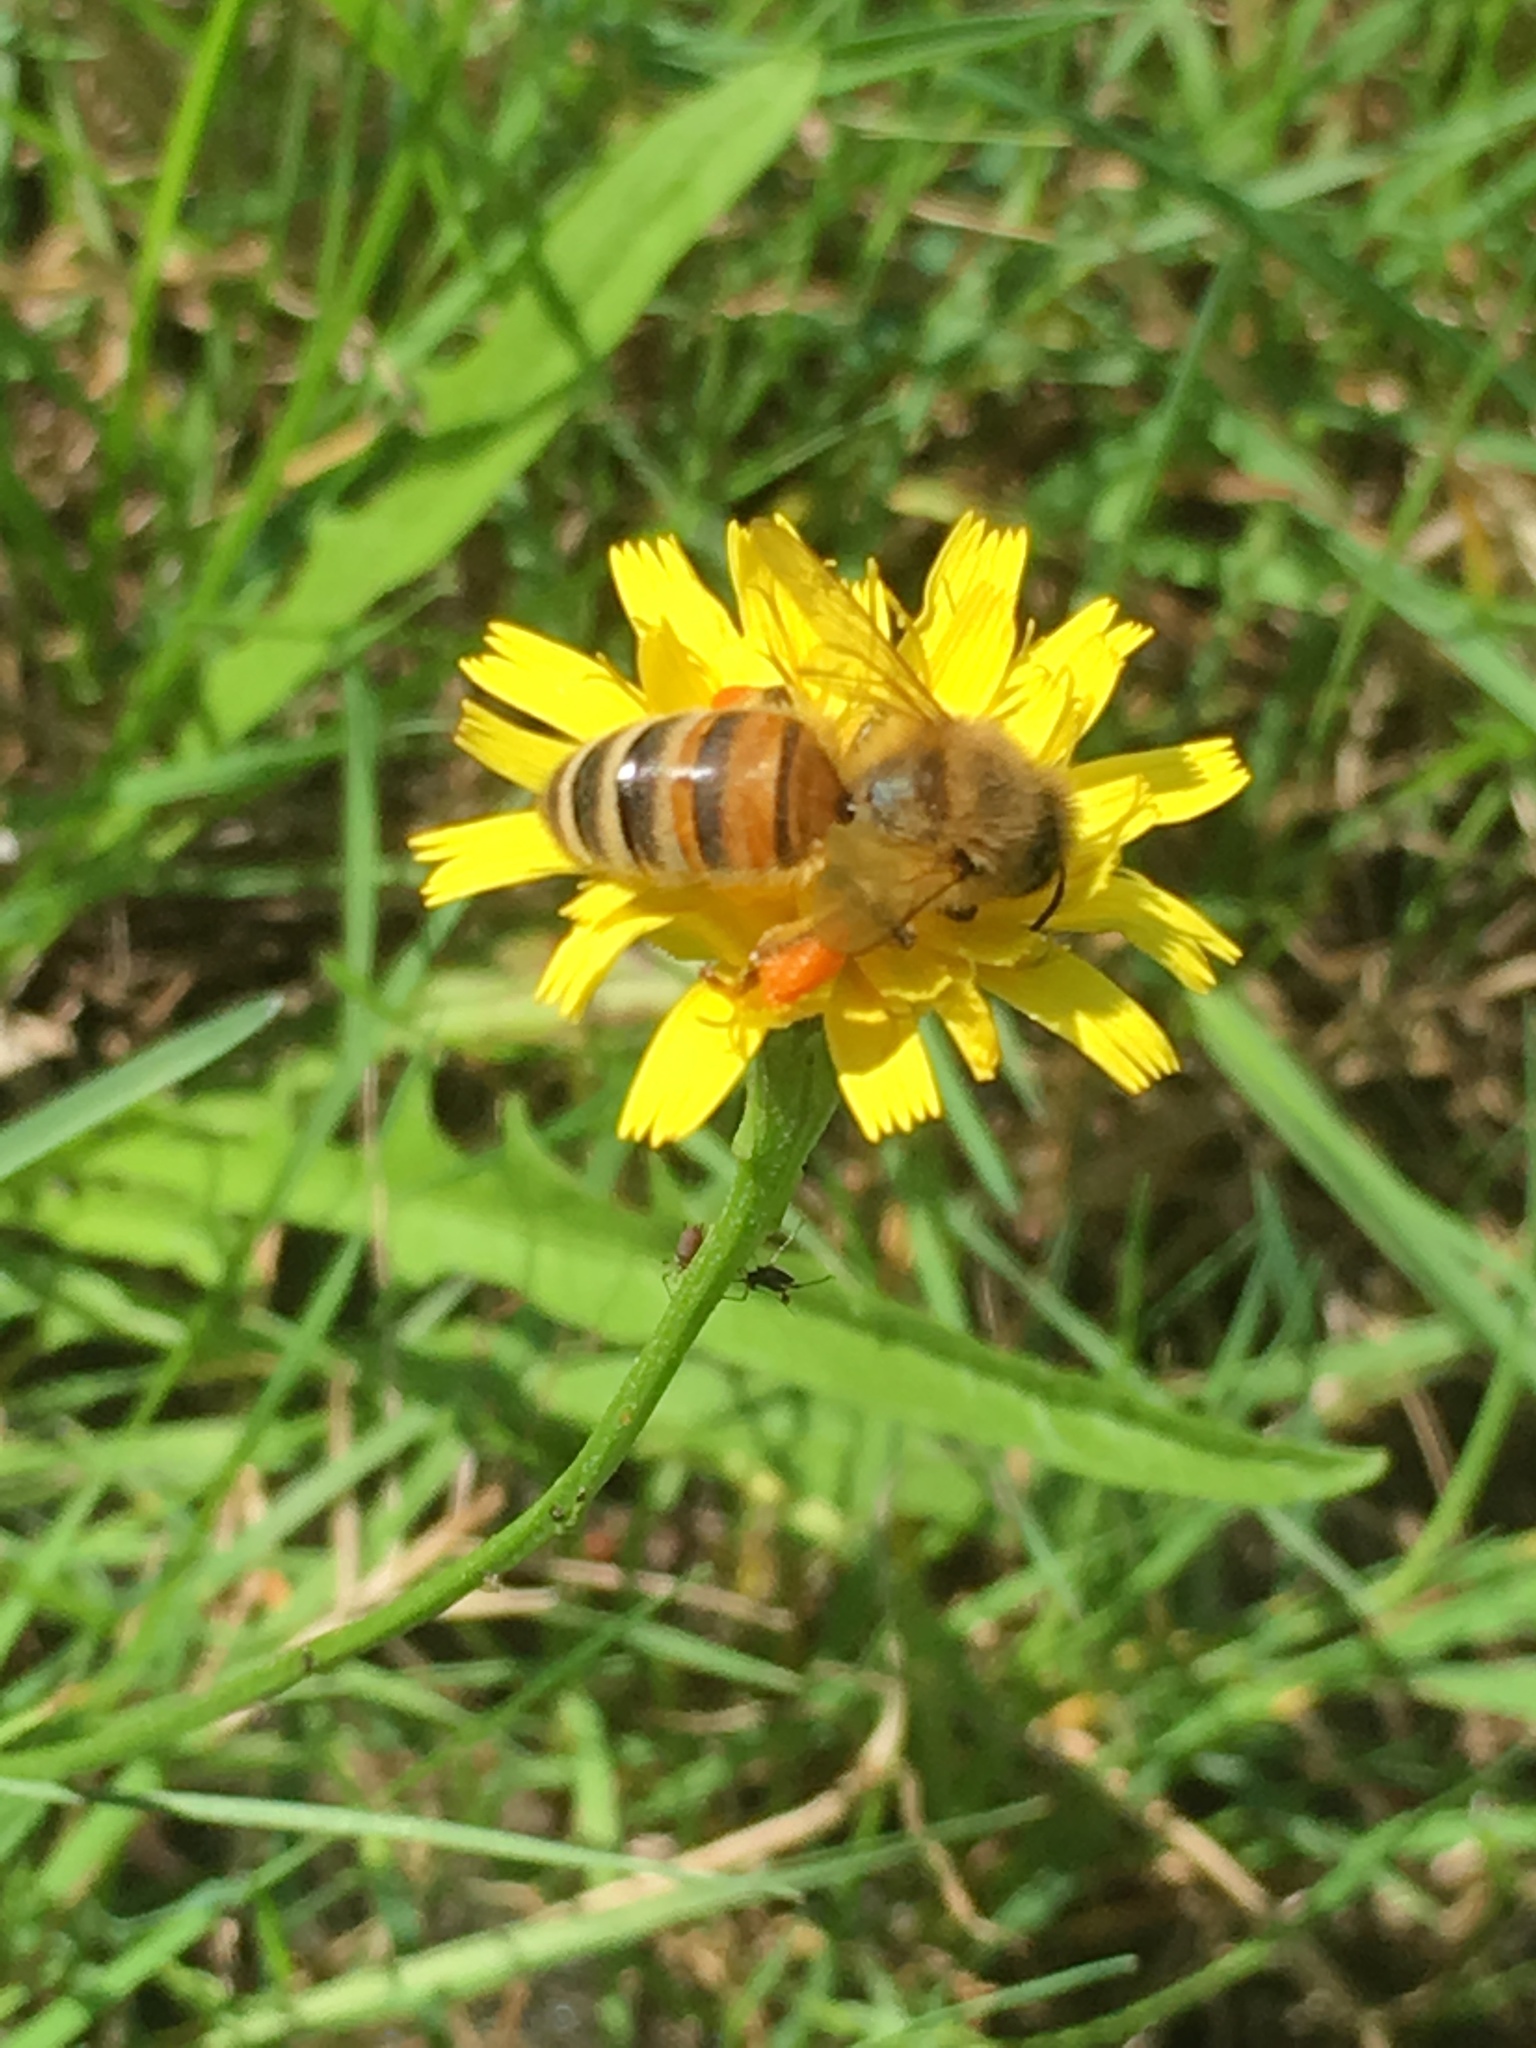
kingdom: Animalia
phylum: Arthropoda
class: Insecta
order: Hymenoptera
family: Apidae
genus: Apis
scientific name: Apis mellifera
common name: Honey bee
